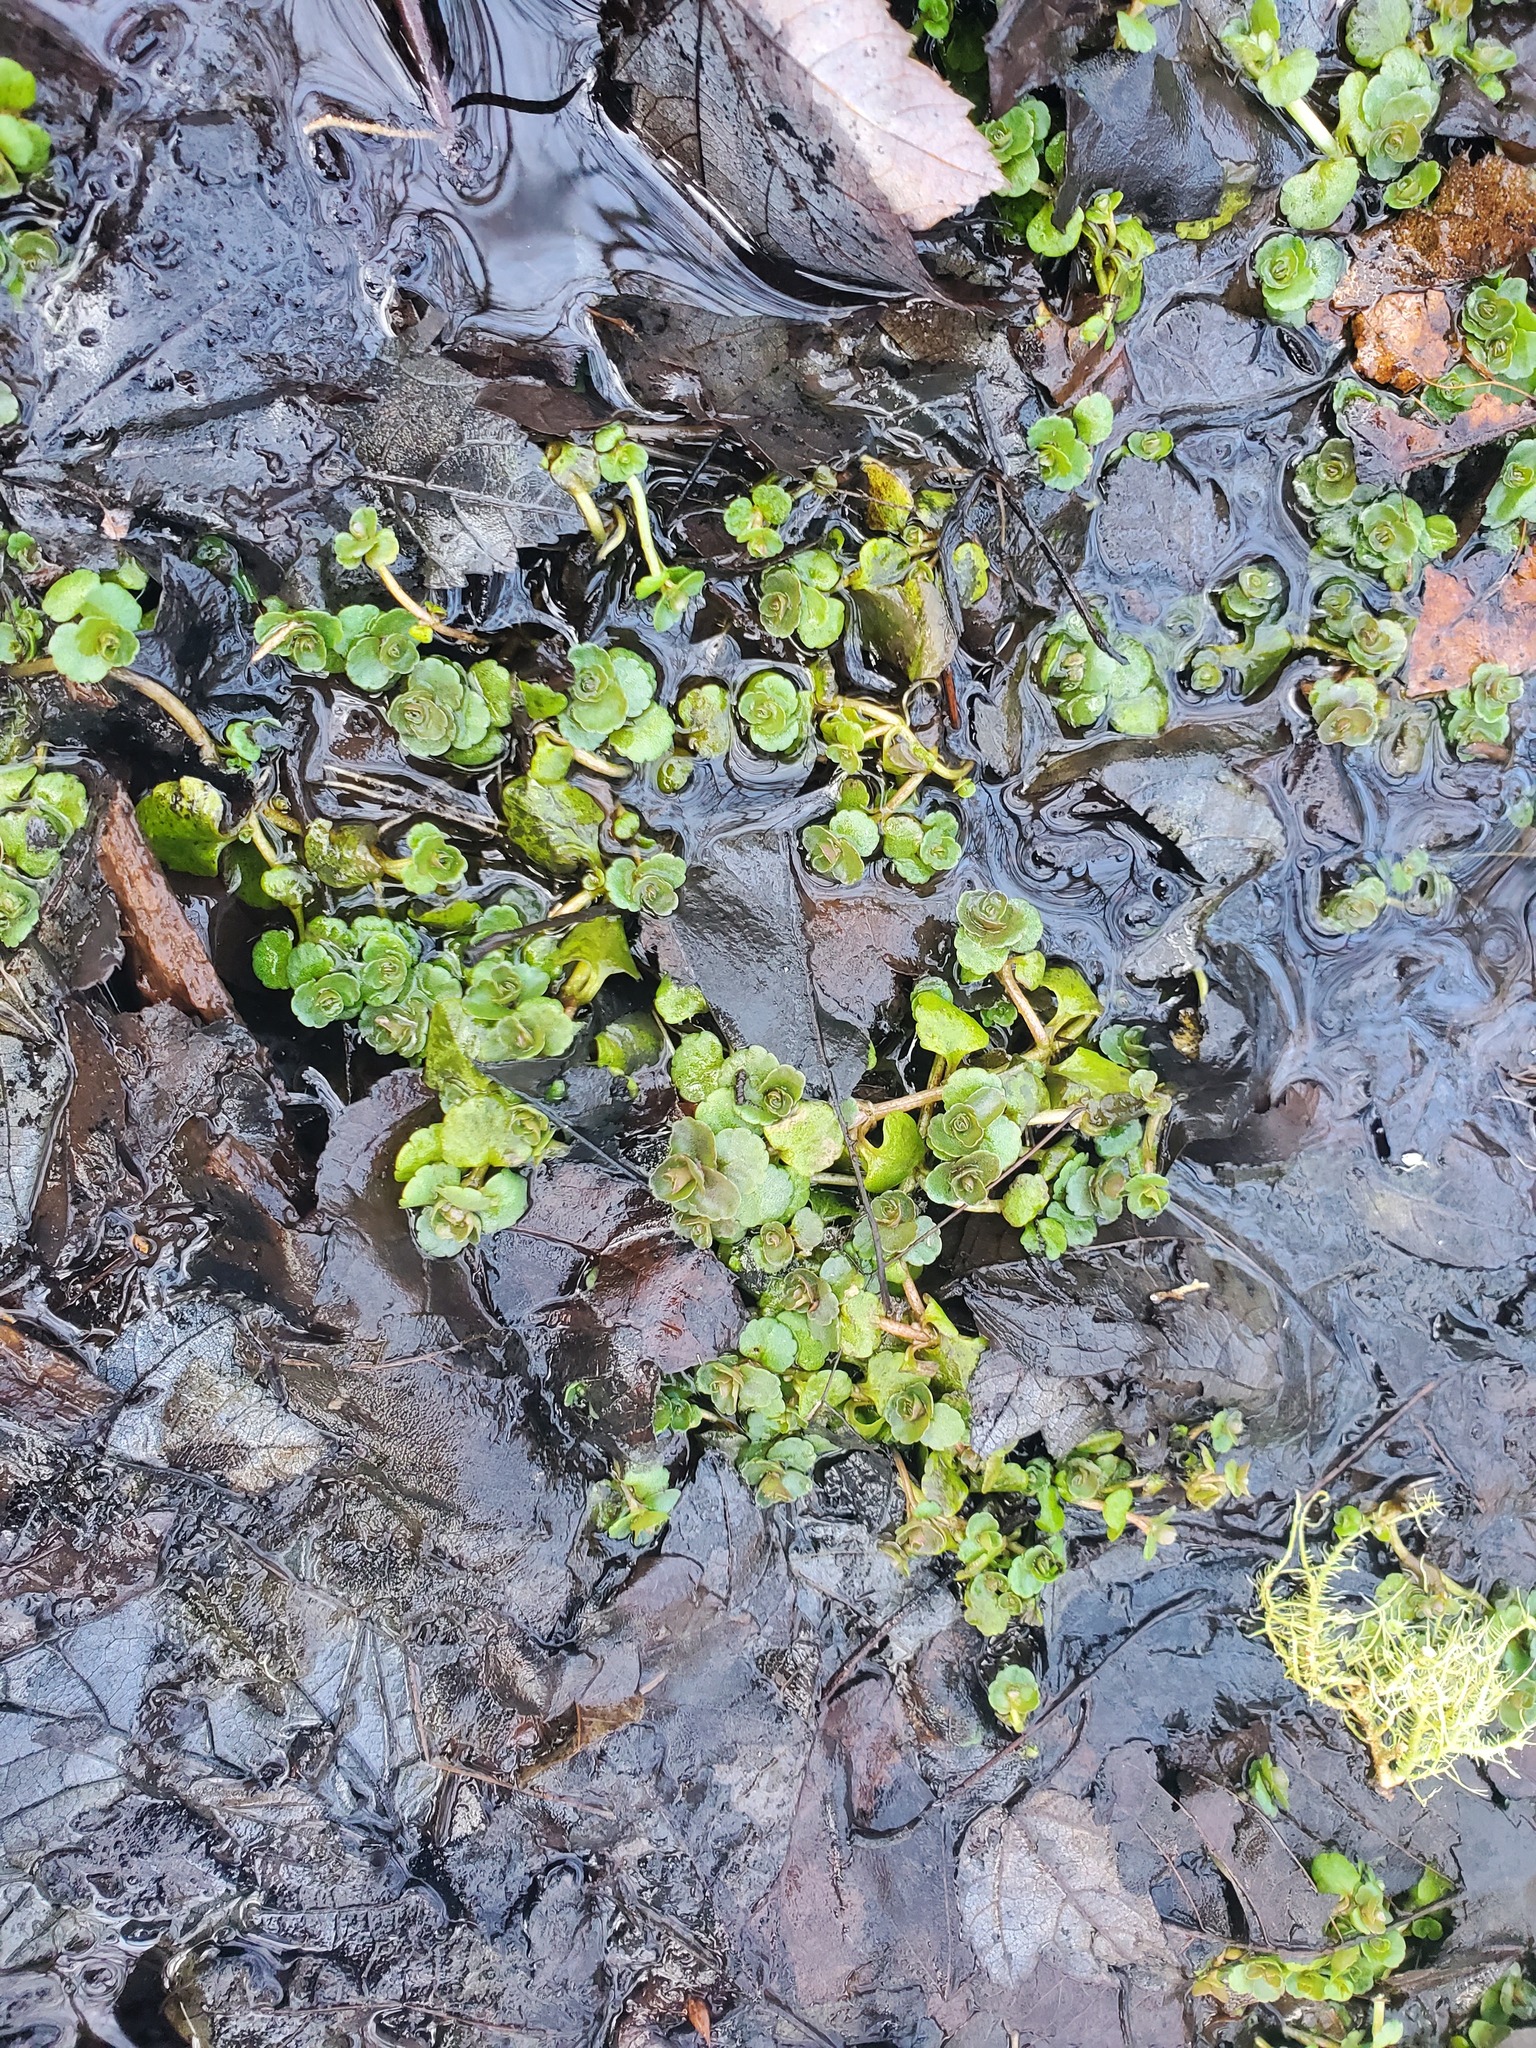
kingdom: Plantae
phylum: Tracheophyta
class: Magnoliopsida
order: Saxifragales
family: Saxifragaceae
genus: Chrysosplenium
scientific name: Chrysosplenium americanum
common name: American golden-saxifrage
